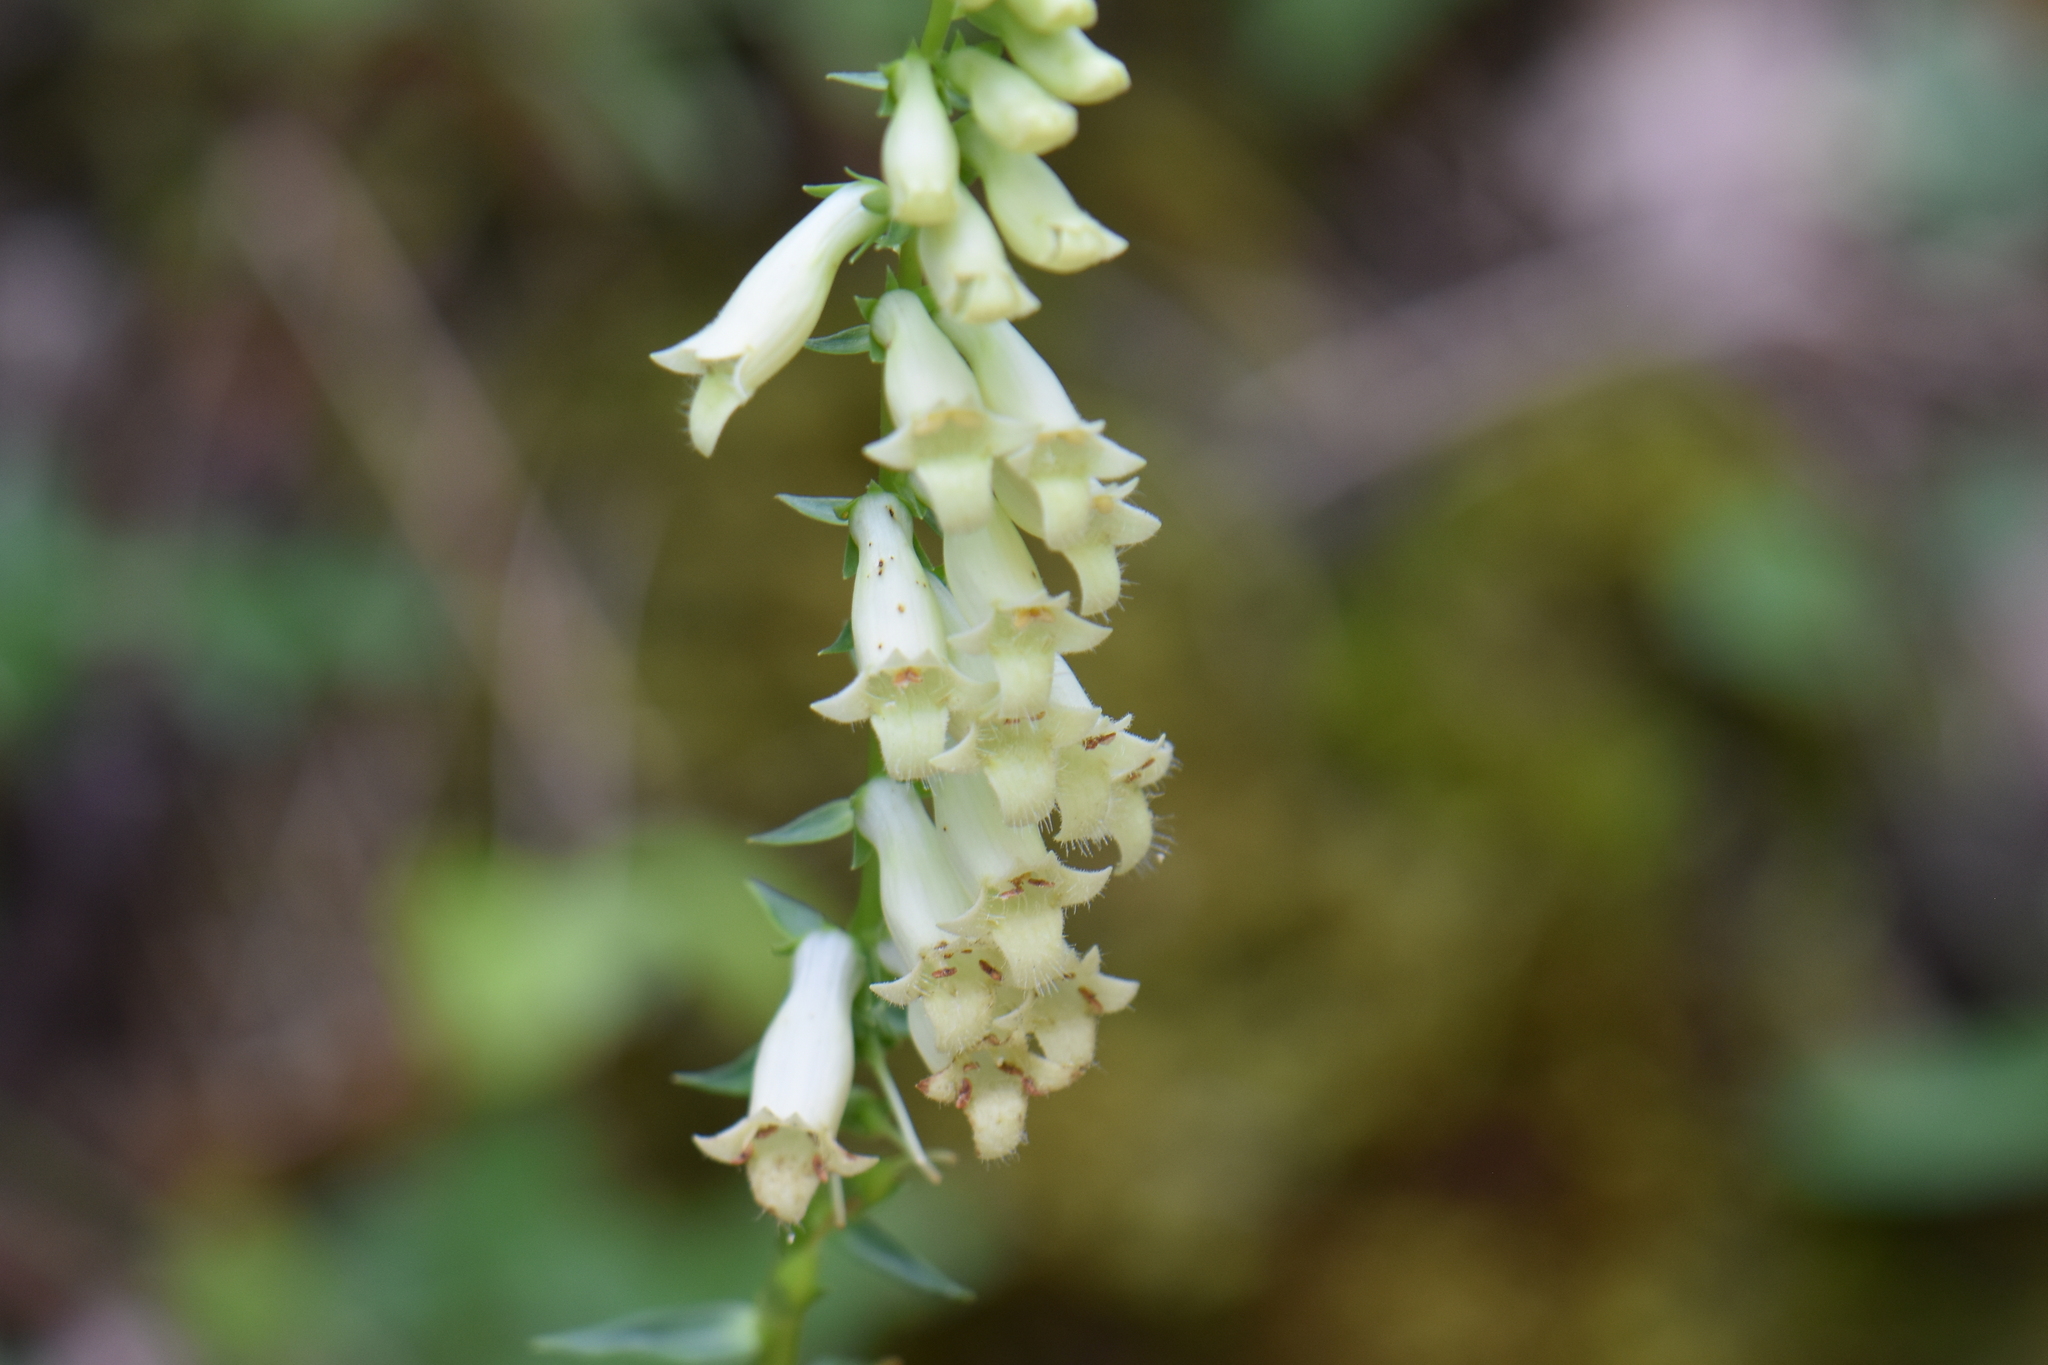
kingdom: Plantae
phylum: Tracheophyta
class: Magnoliopsida
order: Lamiales
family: Plantaginaceae
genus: Digitalis
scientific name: Digitalis lutea
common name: Straw foxglove
